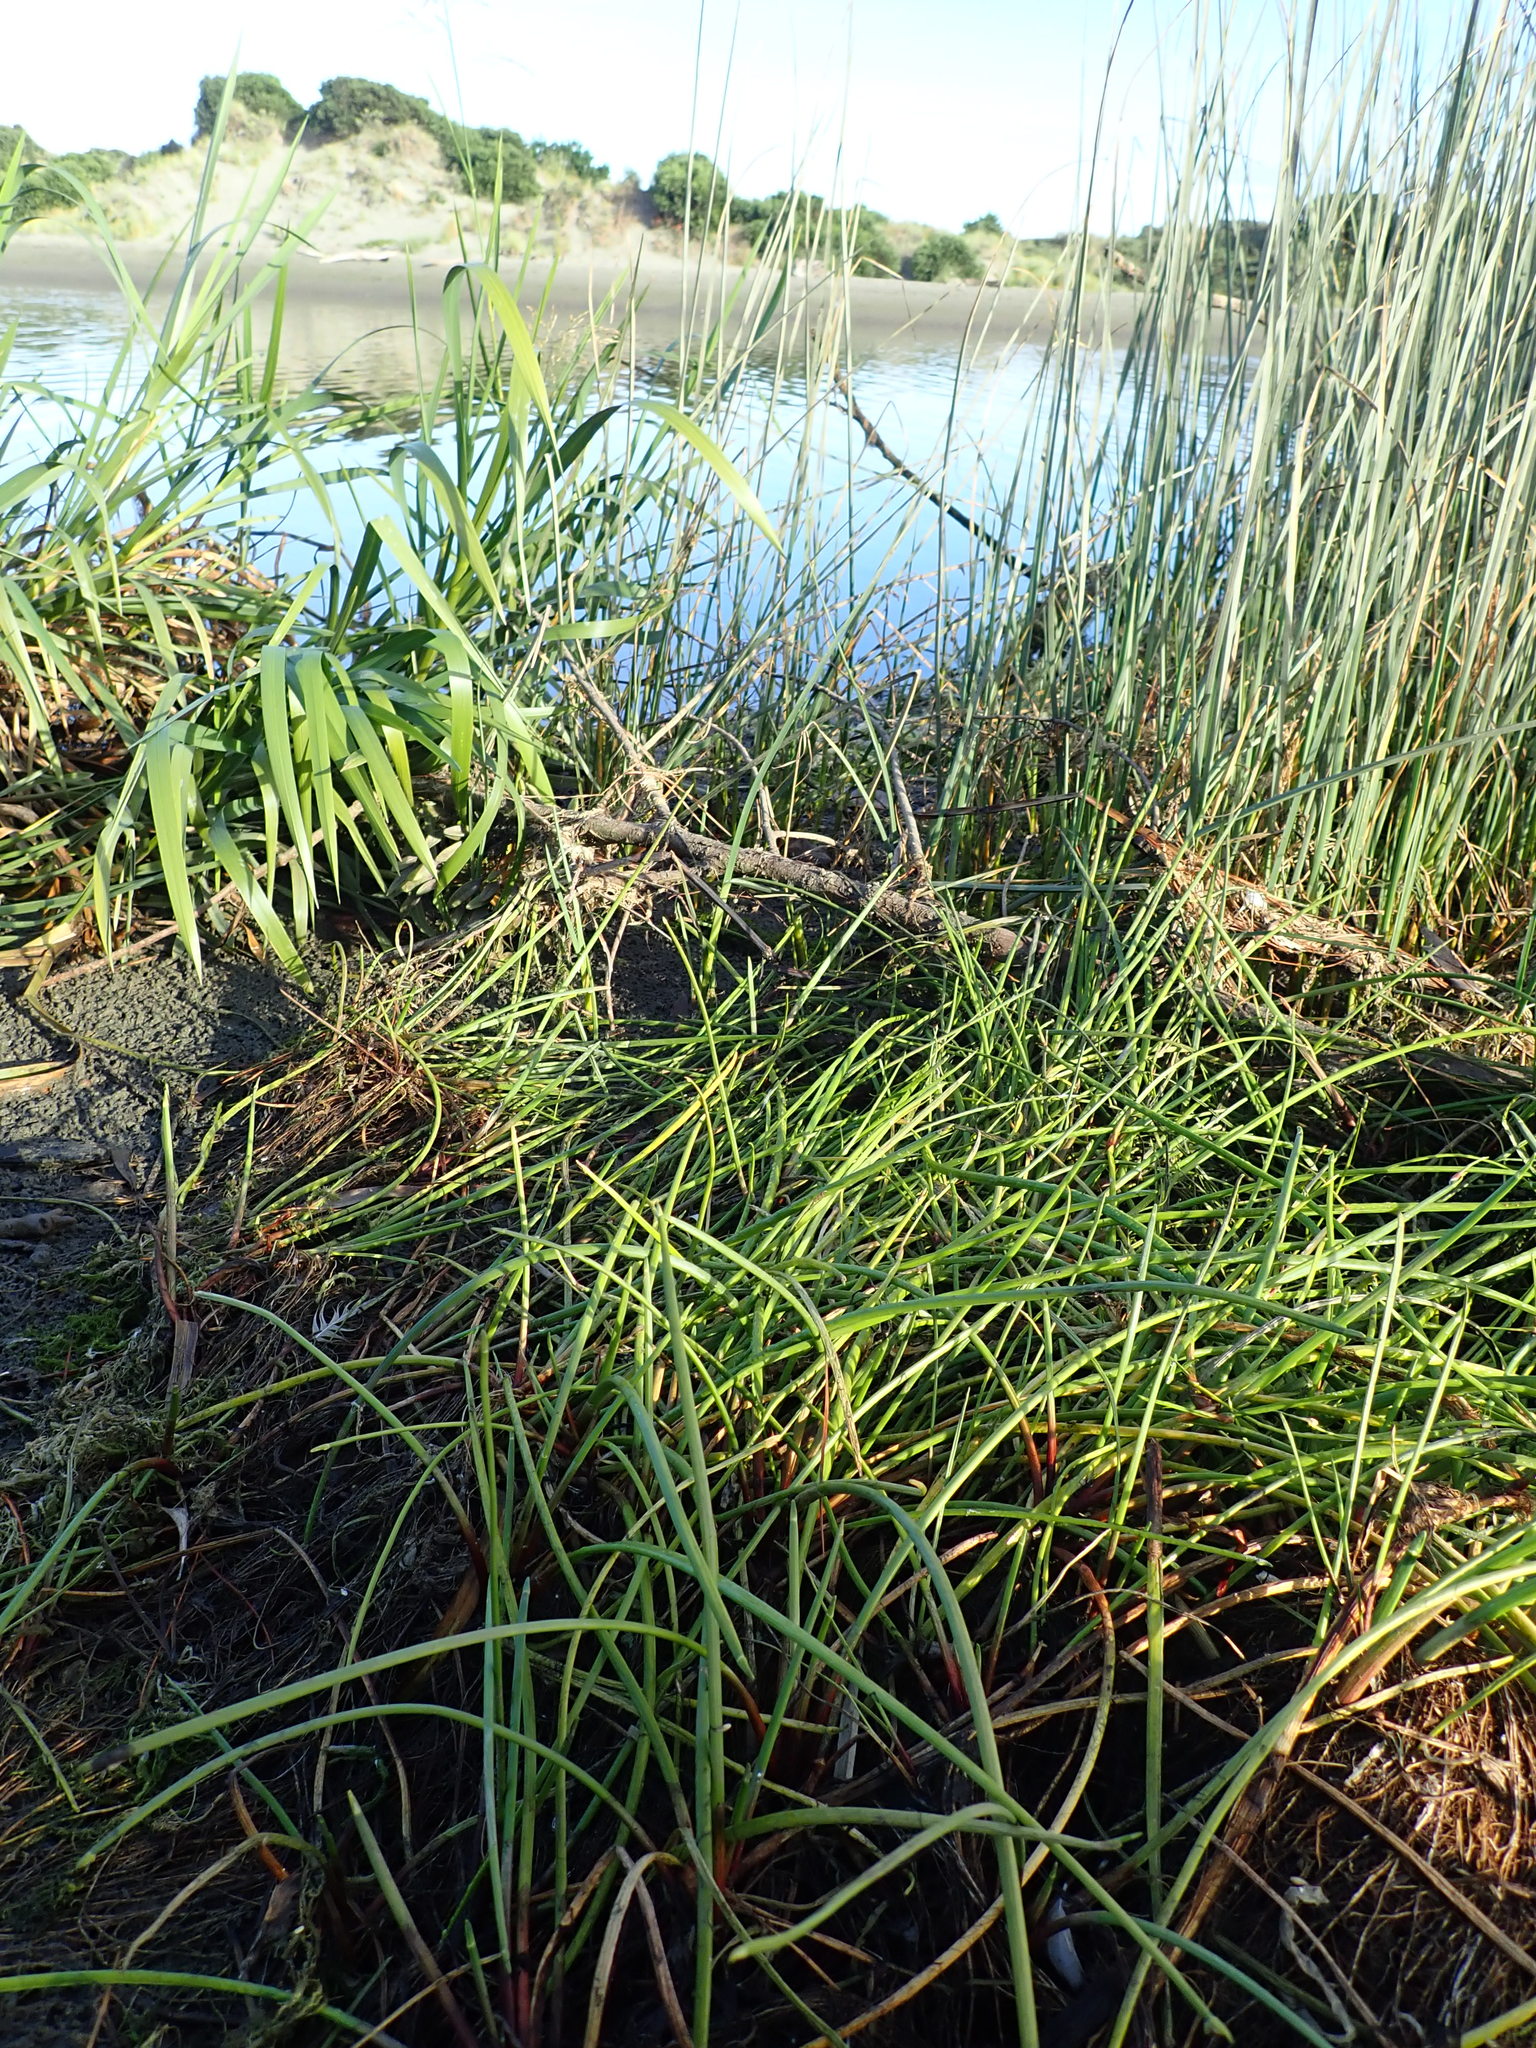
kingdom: Plantae
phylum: Tracheophyta
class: Liliopsida
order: Poales
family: Cyperaceae
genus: Isolepis
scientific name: Isolepis prolifera
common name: Proliferating bulrush
